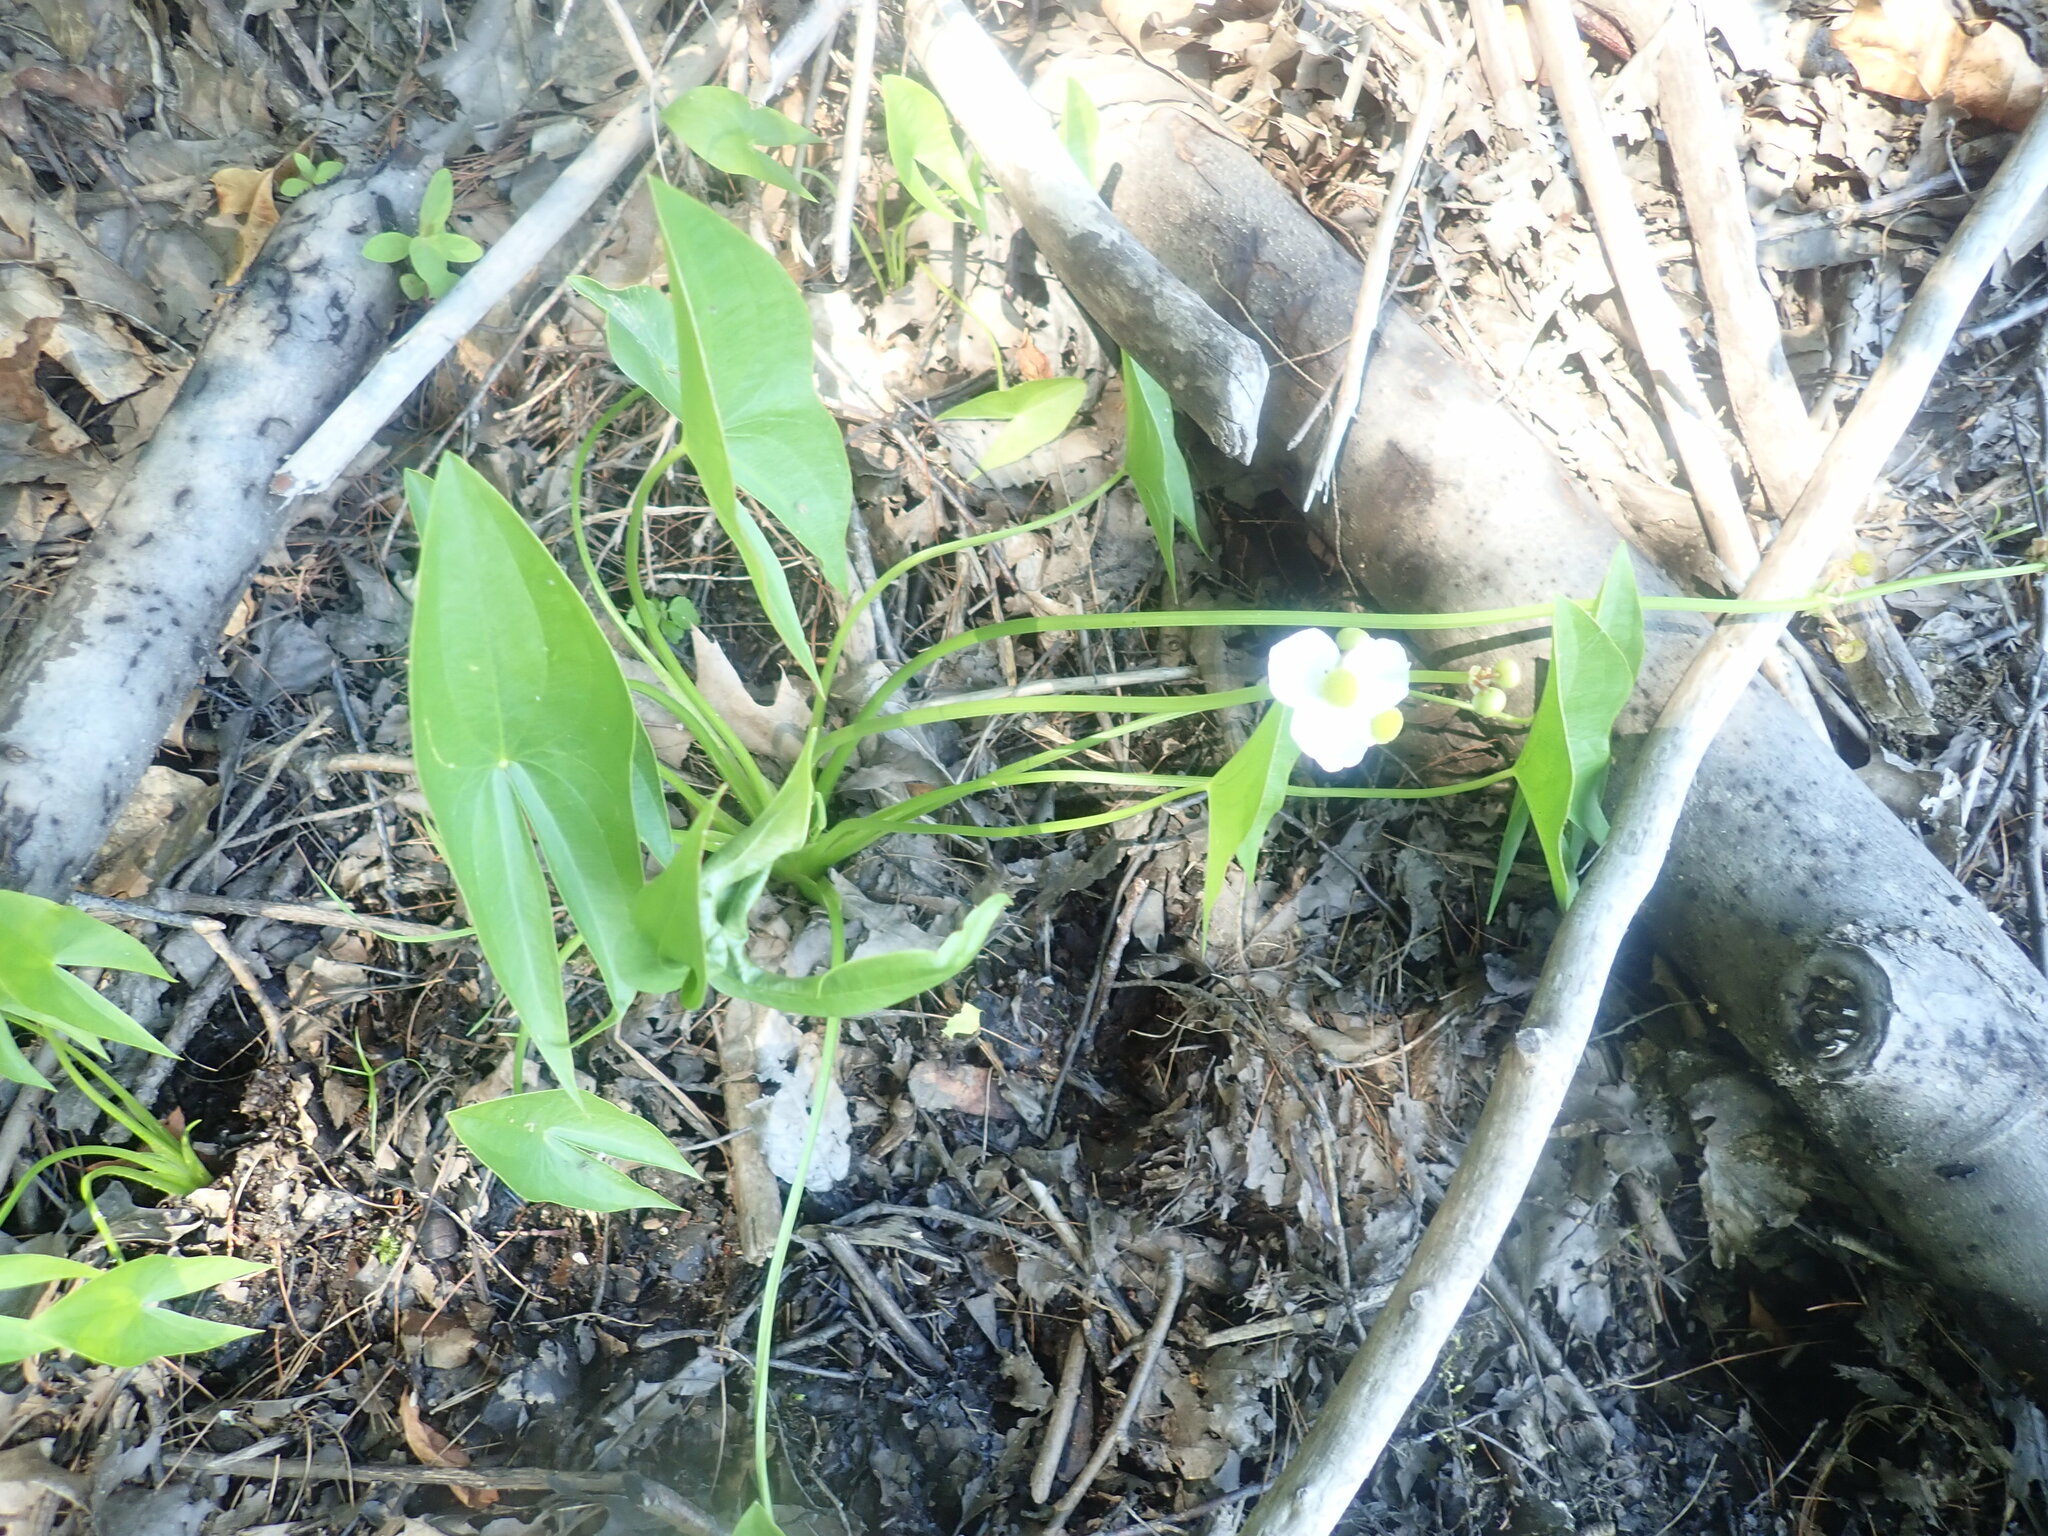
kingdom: Plantae
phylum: Tracheophyta
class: Liliopsida
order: Alismatales
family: Alismataceae
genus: Sagittaria
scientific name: Sagittaria latifolia
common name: Duck-potato
